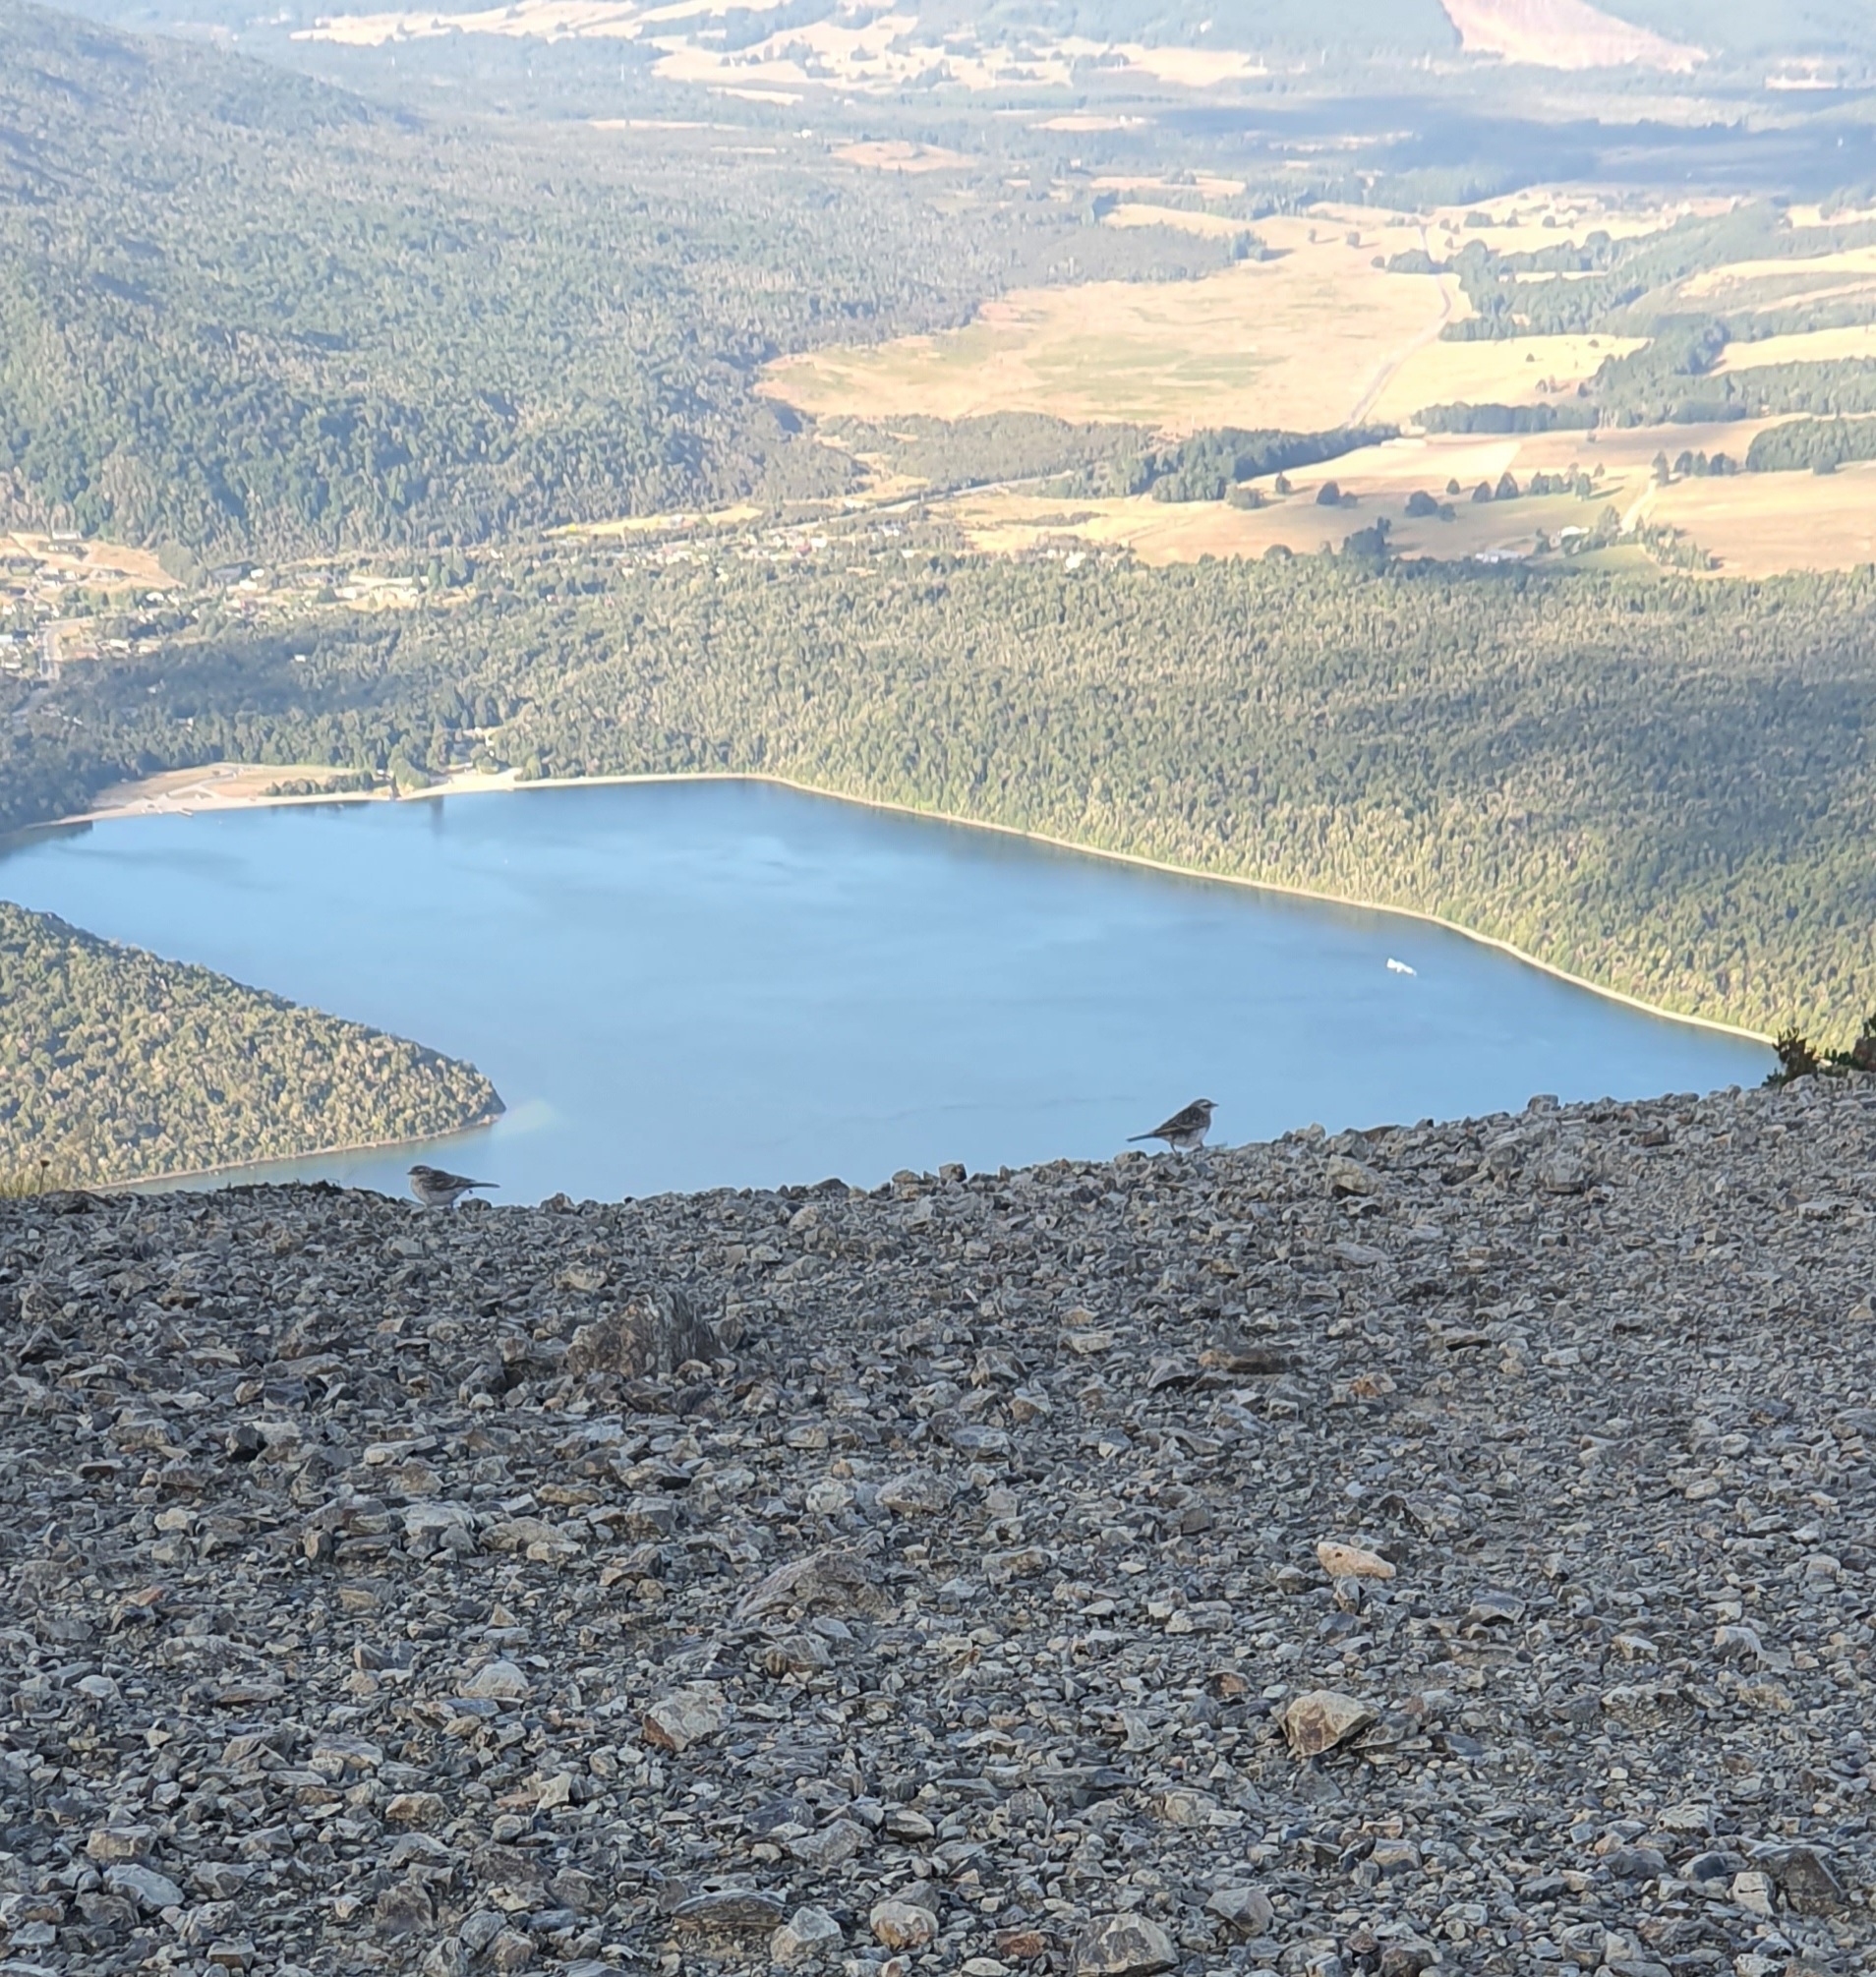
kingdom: Animalia
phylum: Chordata
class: Aves
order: Passeriformes
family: Motacillidae
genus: Anthus
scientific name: Anthus novaeseelandiae
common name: New zealand pipit
